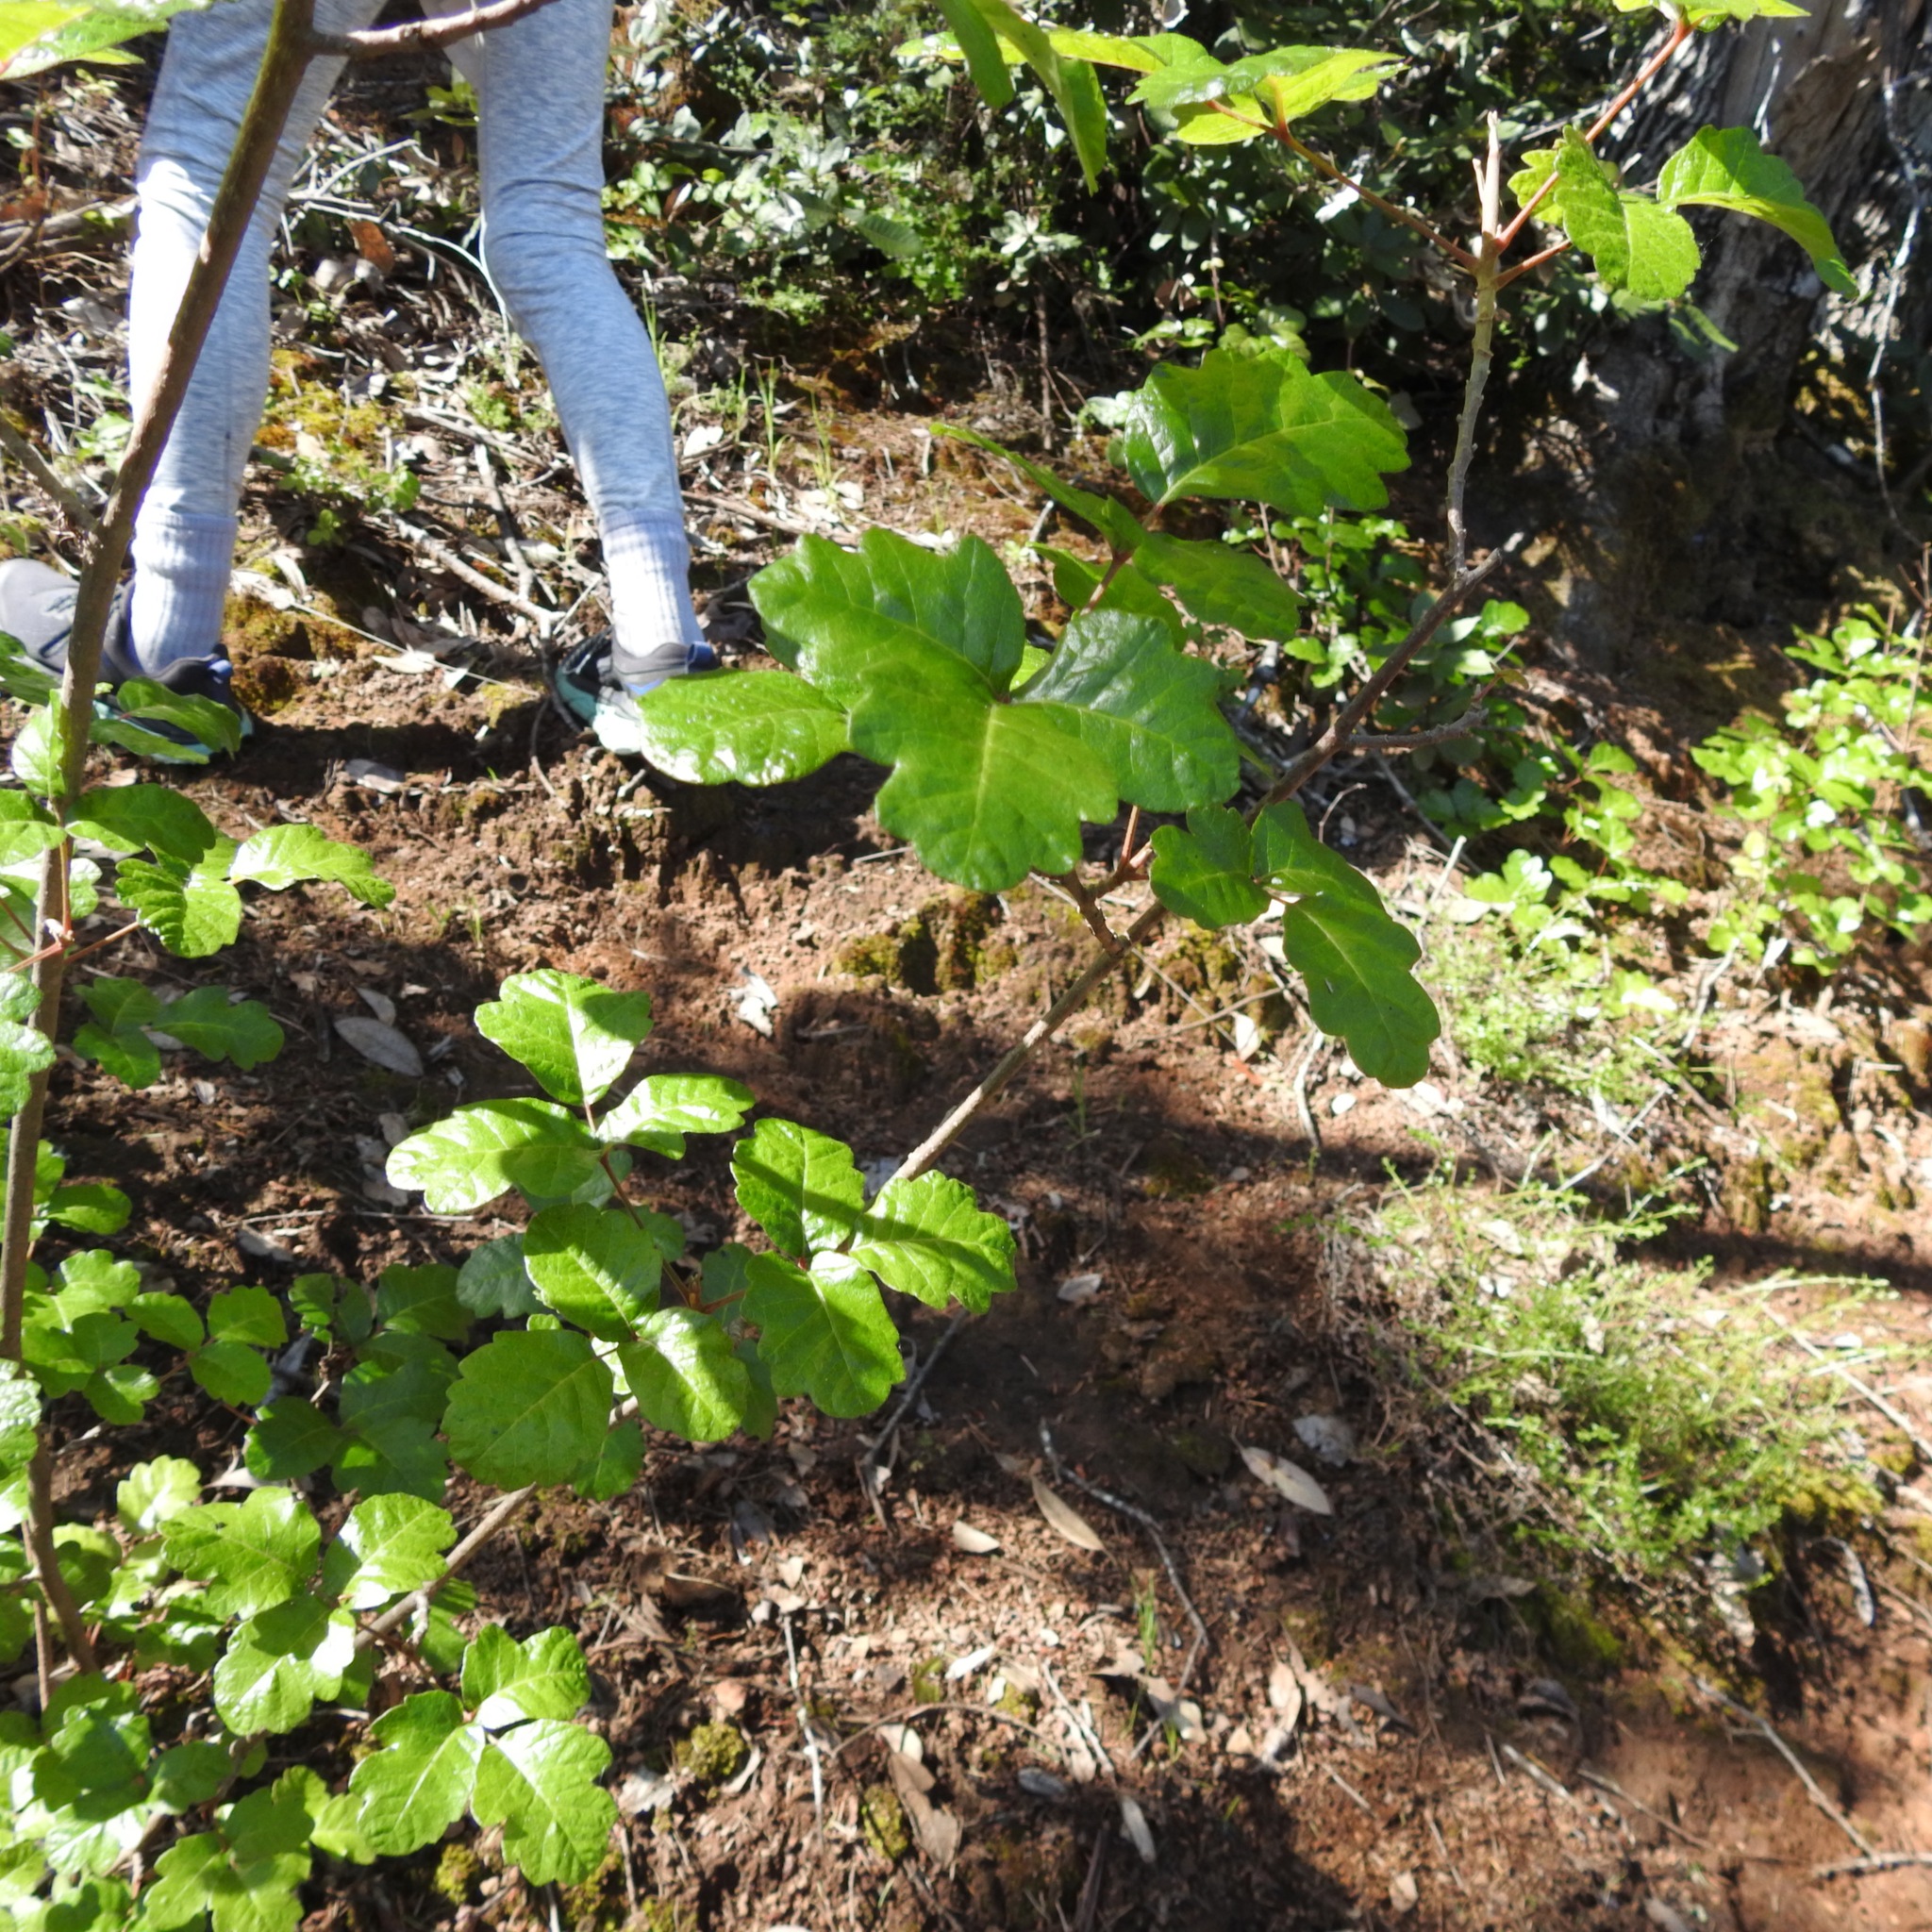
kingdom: Plantae
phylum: Tracheophyta
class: Magnoliopsida
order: Sapindales
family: Anacardiaceae
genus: Toxicodendron
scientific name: Toxicodendron diversilobum
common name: Pacific poison-oak
